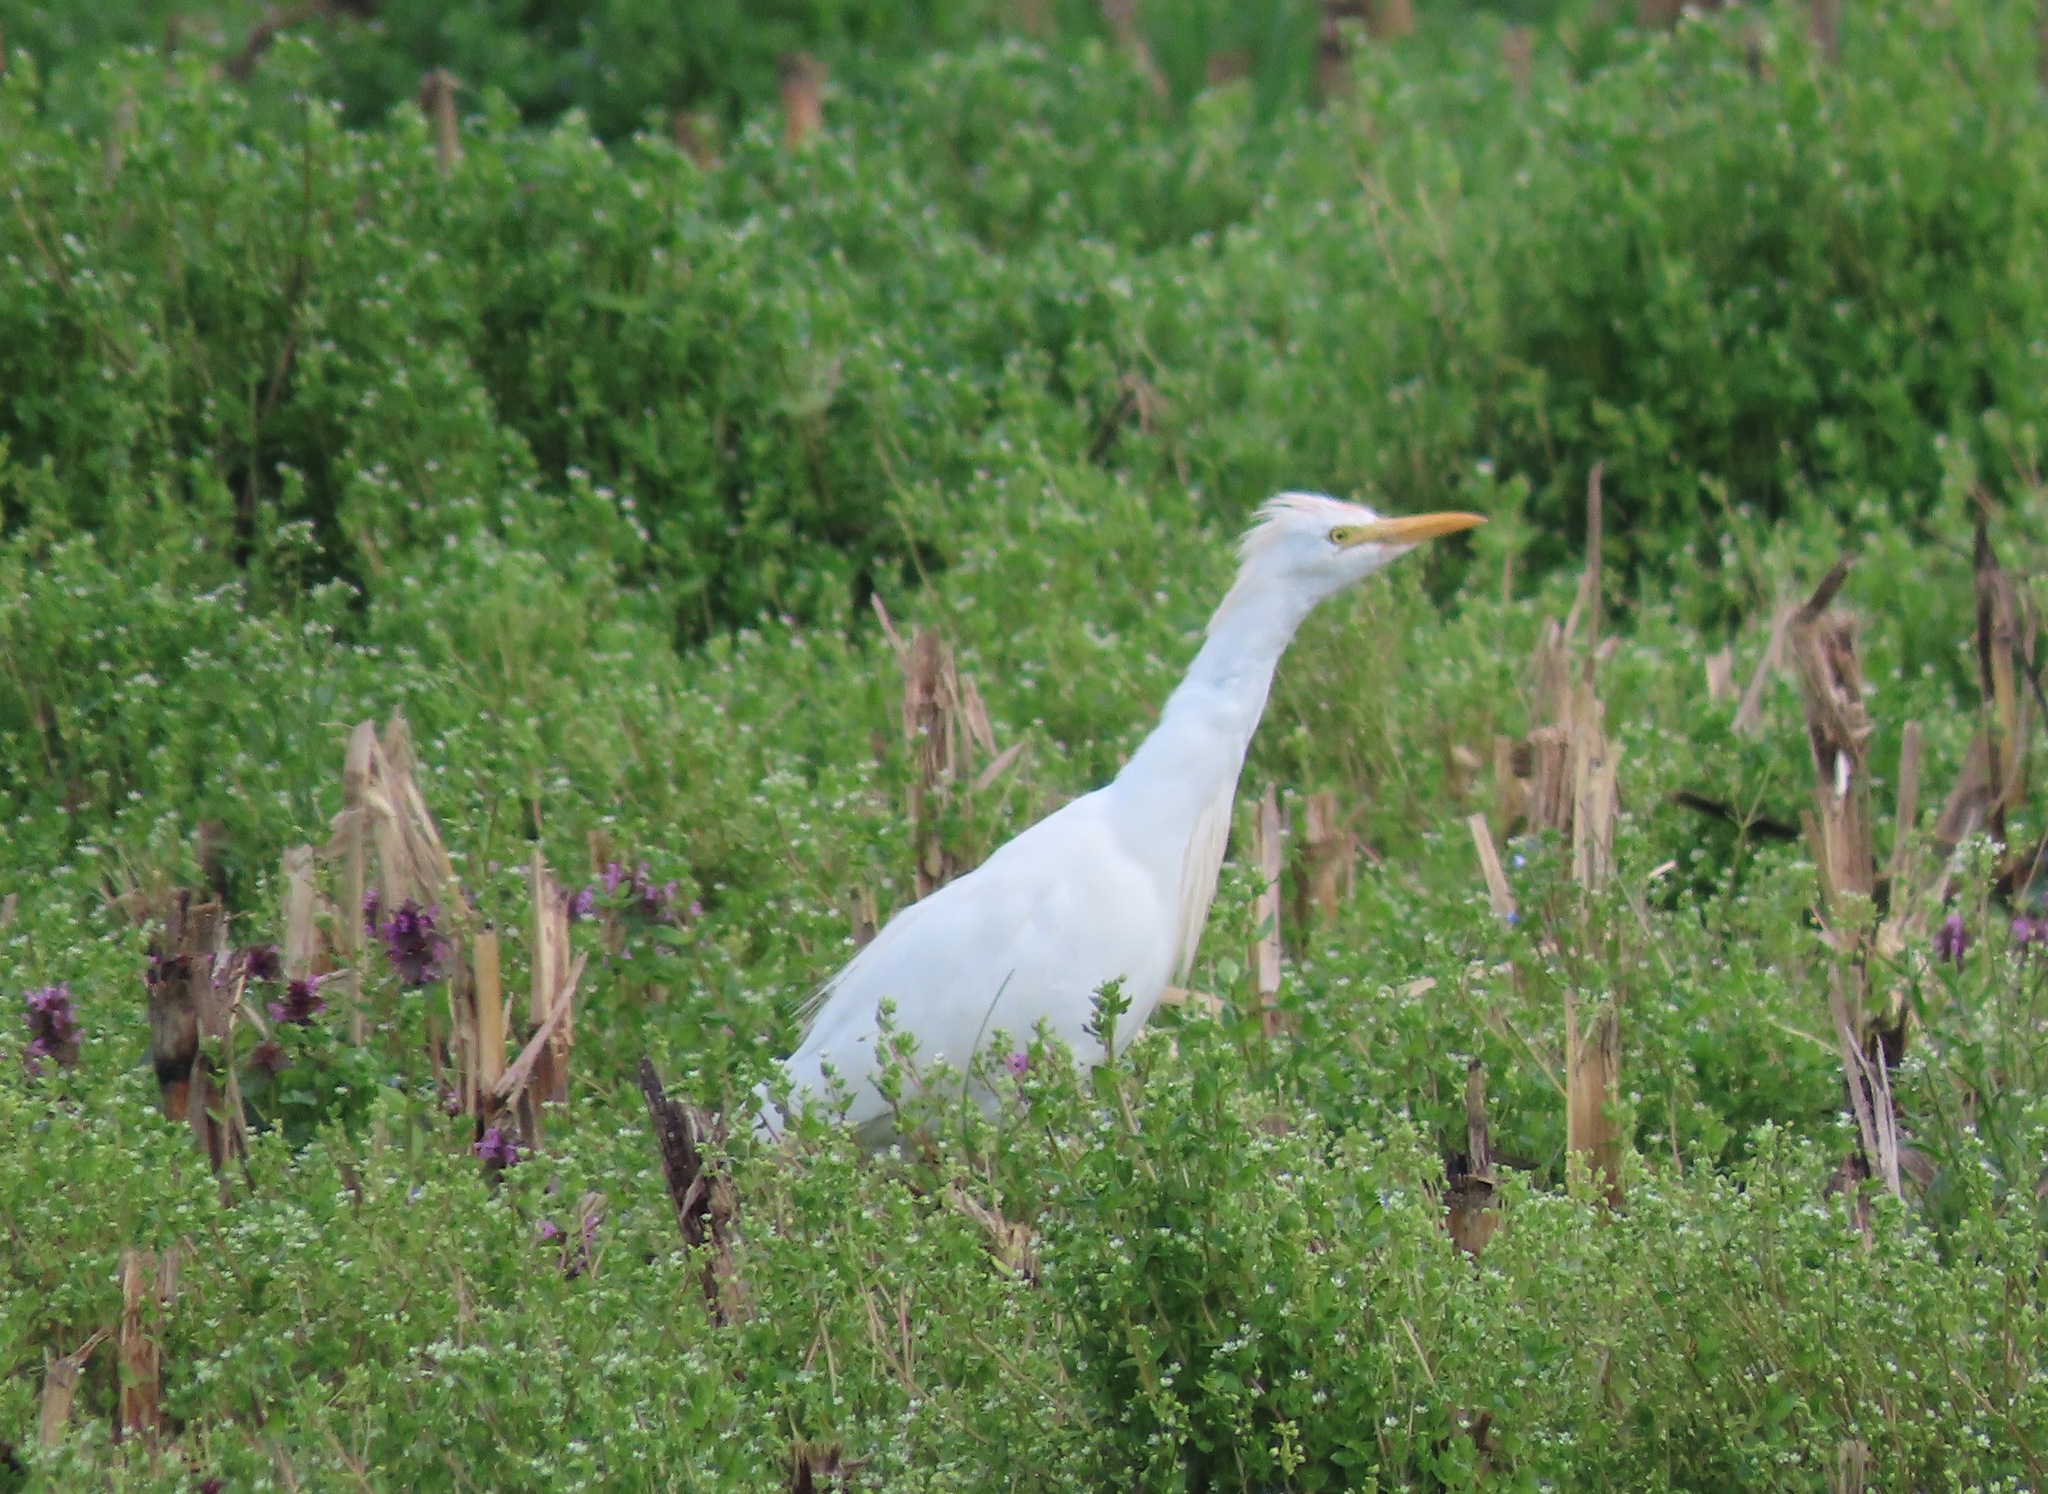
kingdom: Animalia
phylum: Chordata
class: Aves
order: Pelecaniformes
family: Ardeidae
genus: Bubulcus
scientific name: Bubulcus ibis
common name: Cattle egret
